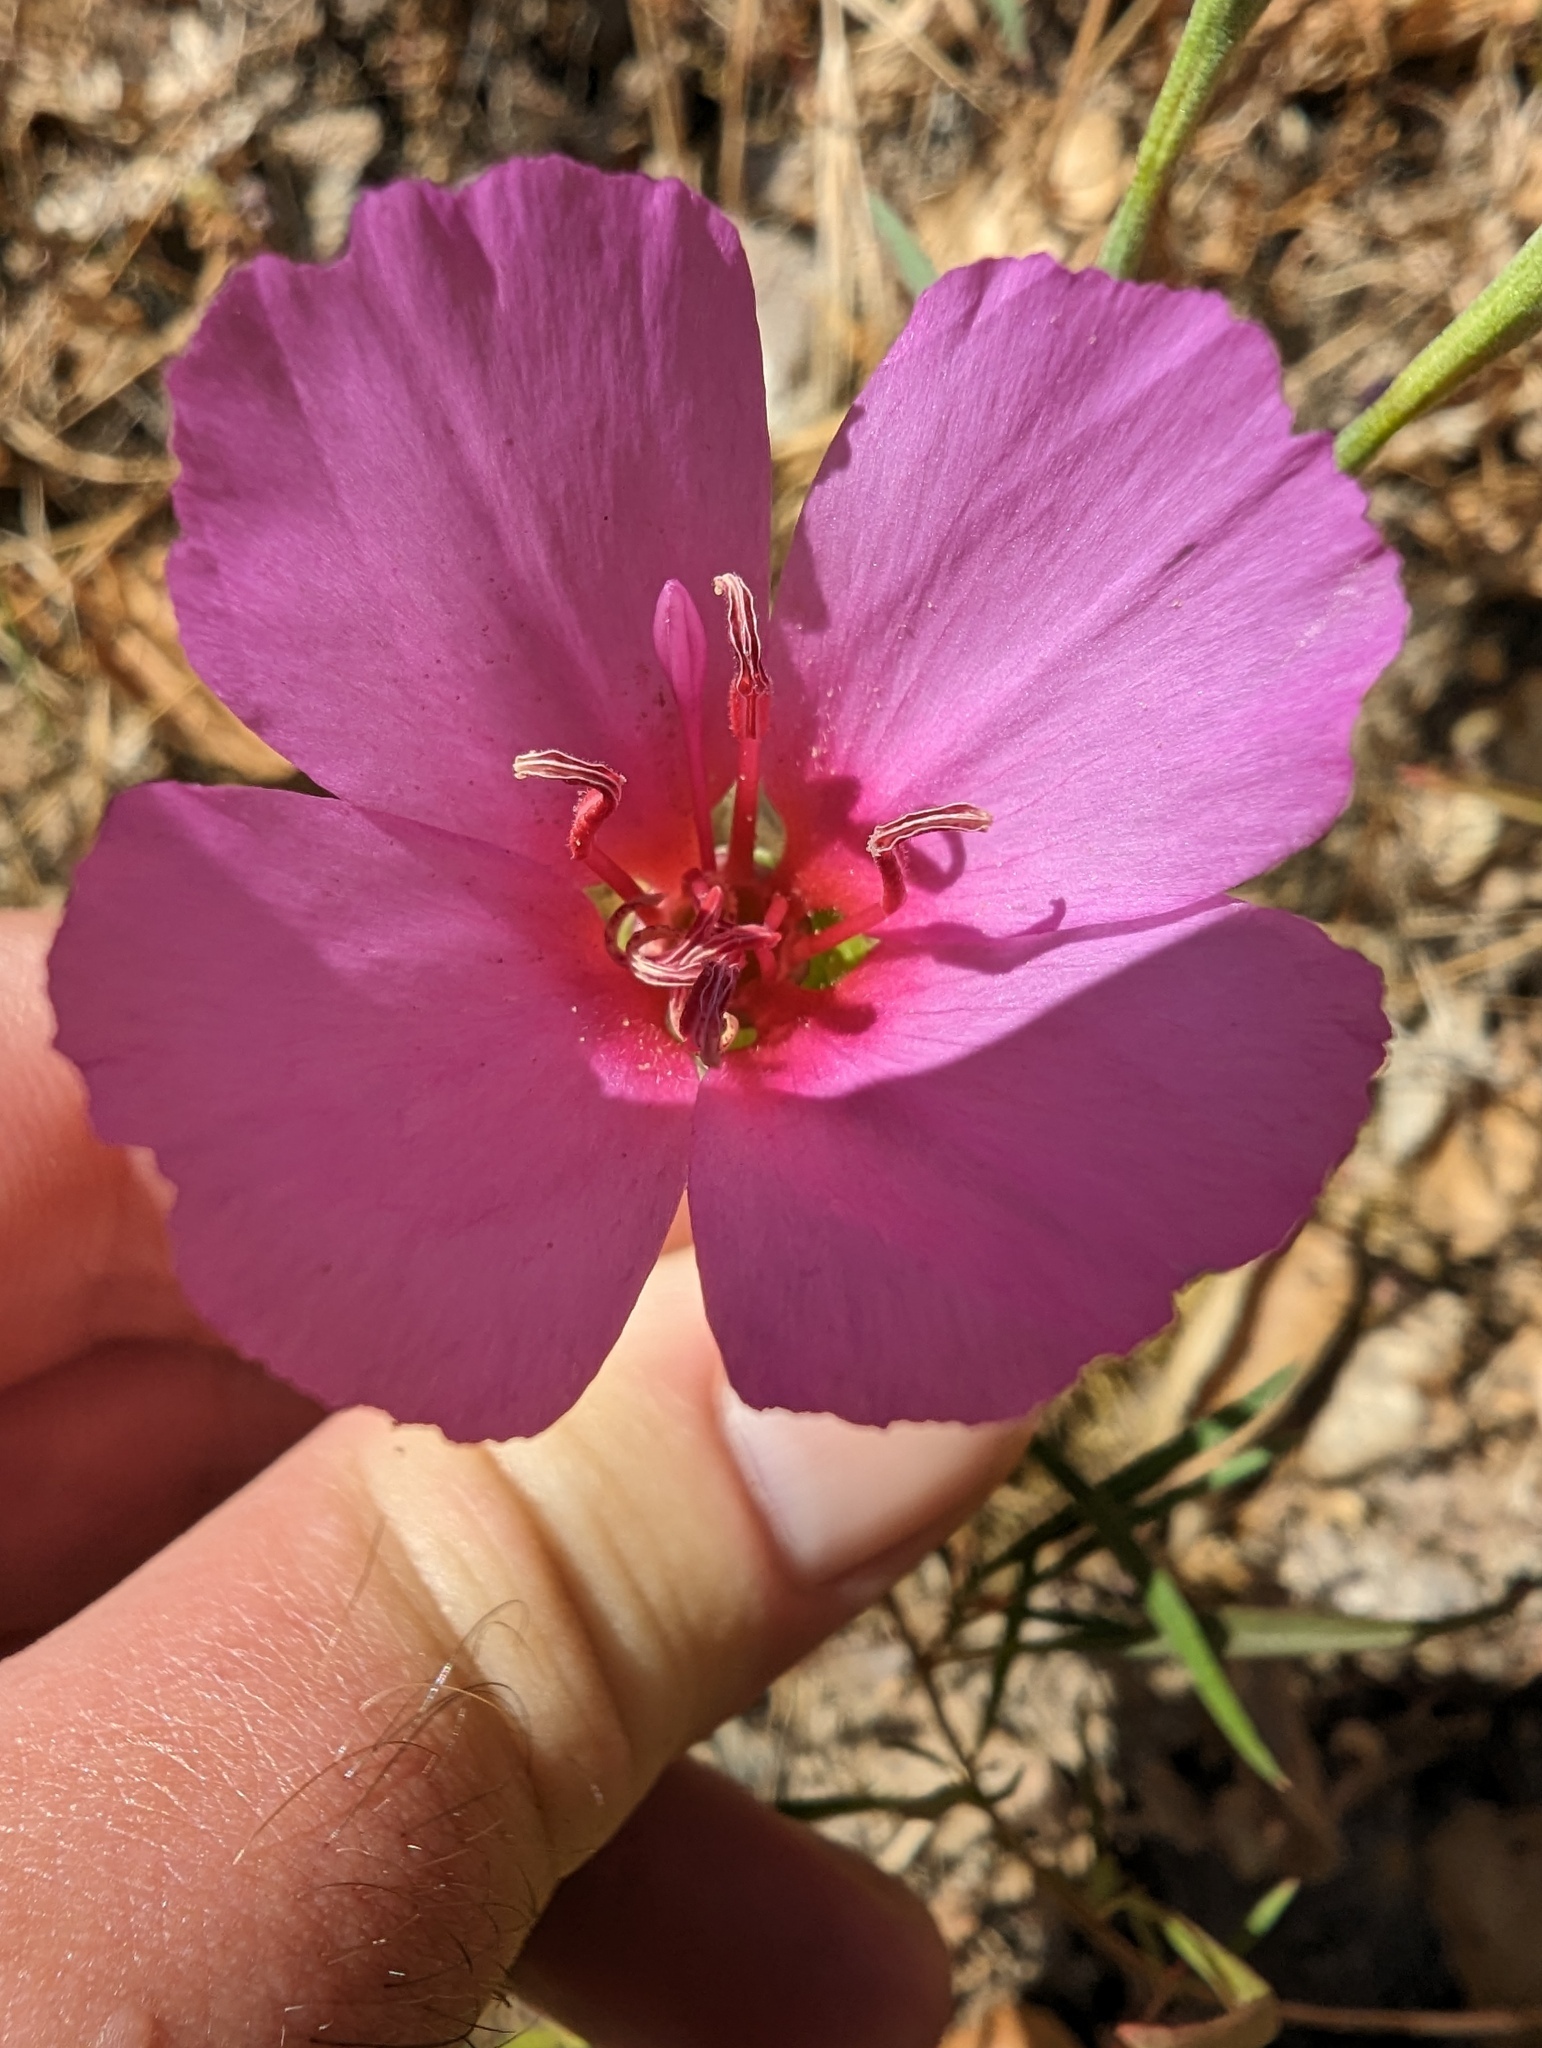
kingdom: Plantae
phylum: Tracheophyta
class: Magnoliopsida
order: Myrtales
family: Onagraceae
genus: Clarkia
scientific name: Clarkia rubicunda
